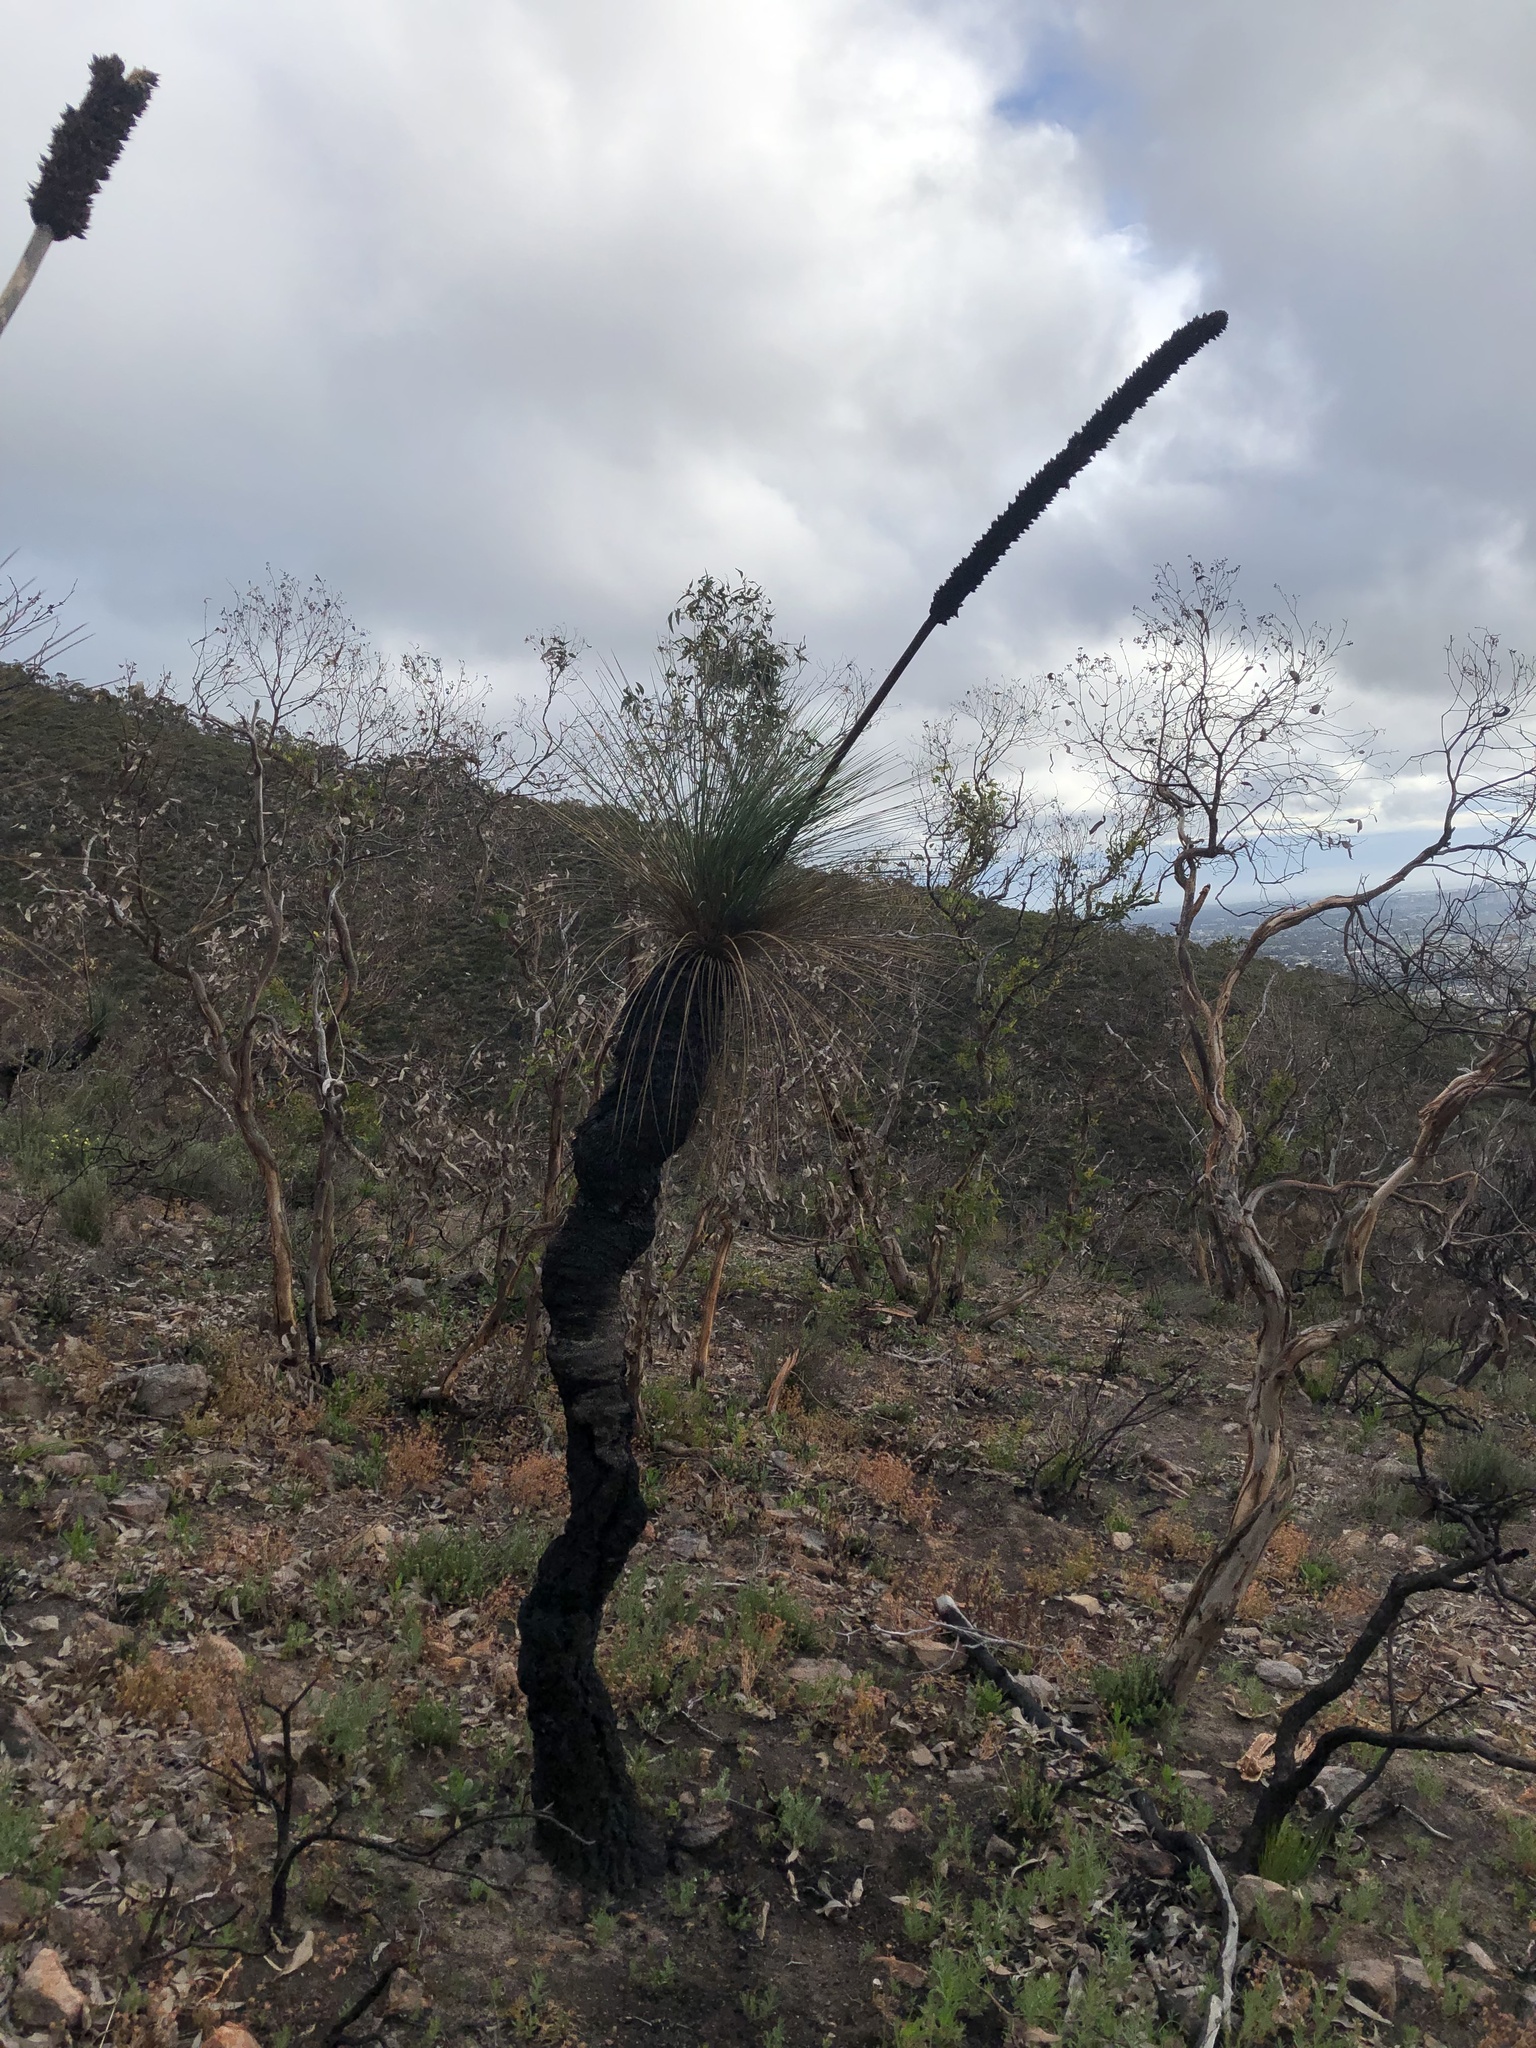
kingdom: Plantae
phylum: Tracheophyta
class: Liliopsida
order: Asparagales
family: Asphodelaceae
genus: Xanthorrhoea
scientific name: Xanthorrhoea quadrangulata
